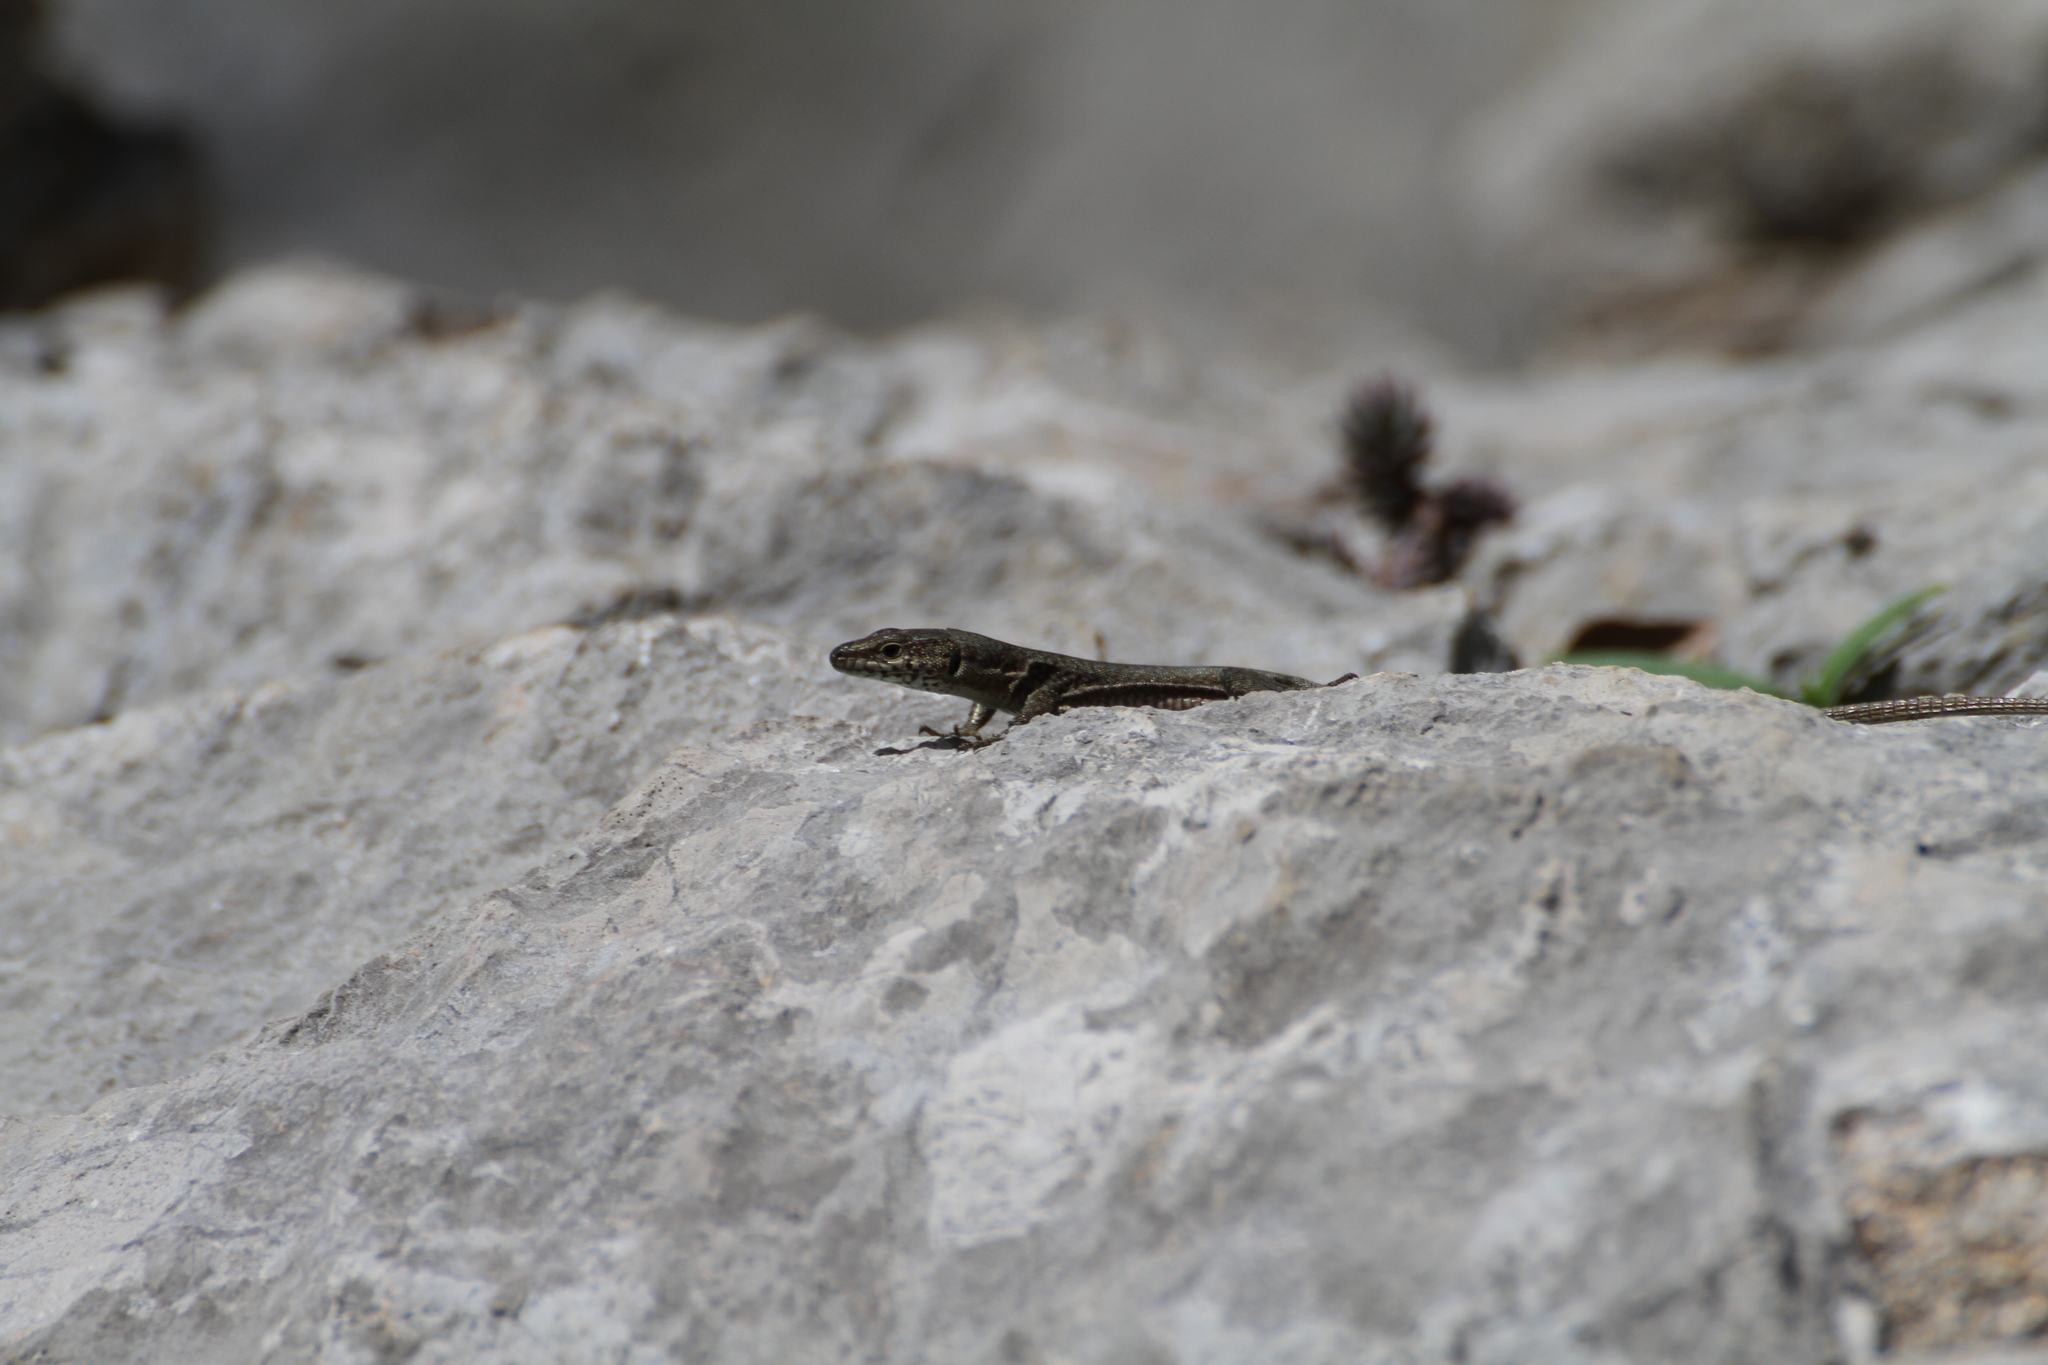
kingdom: Animalia
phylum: Chordata
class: Squamata
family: Lacertidae
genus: Podarcis
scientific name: Podarcis liolepis
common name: Catalonian wall lizard
